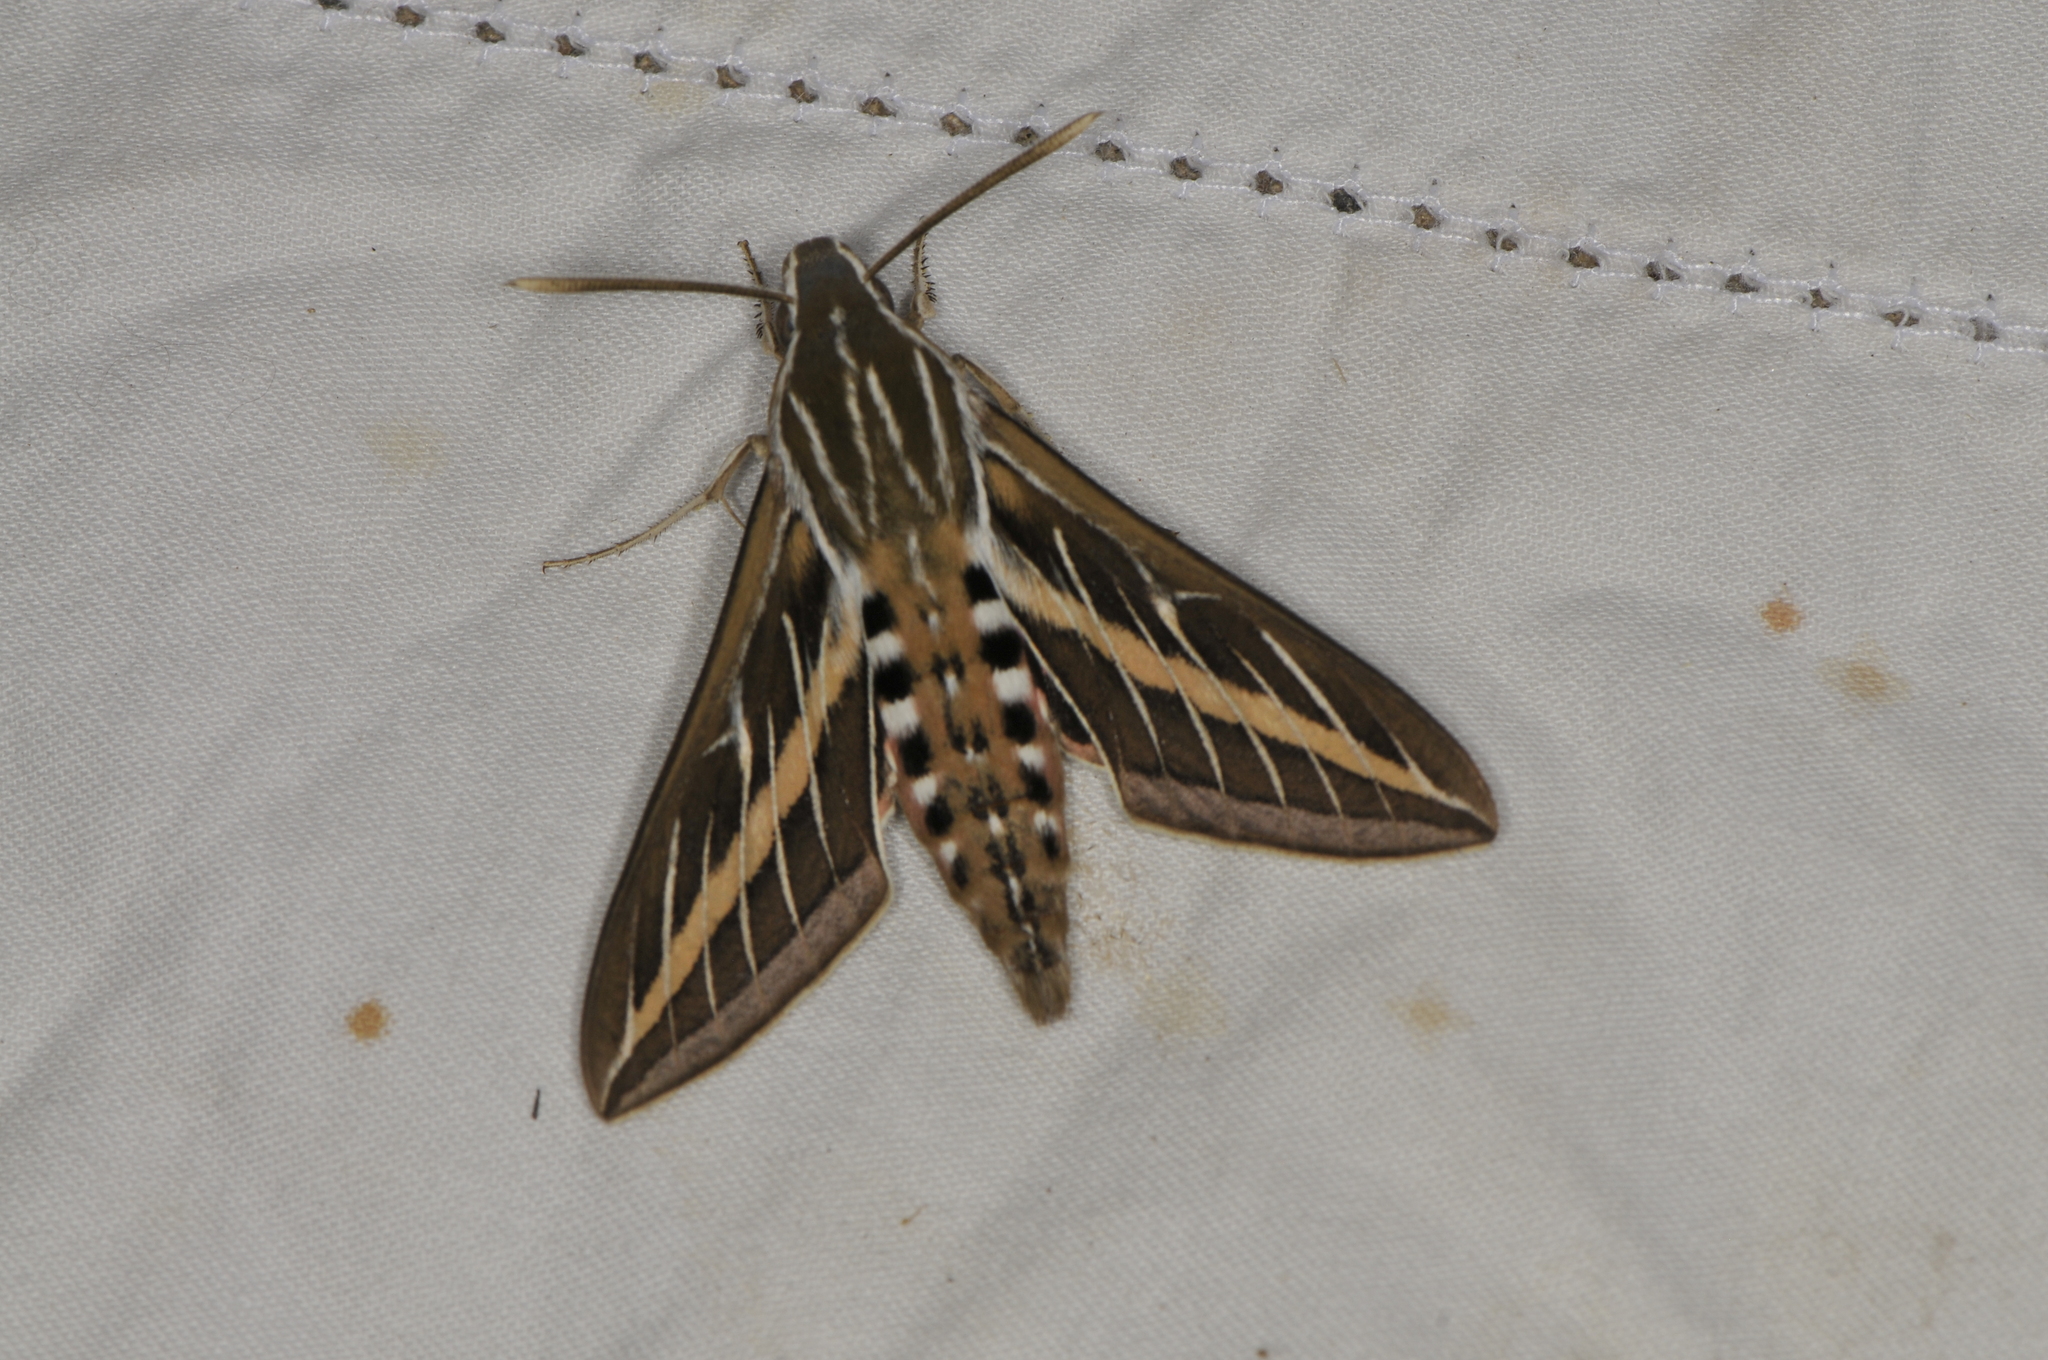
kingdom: Animalia
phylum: Arthropoda
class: Insecta
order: Lepidoptera
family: Sphingidae
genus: Hyles
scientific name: Hyles lineata
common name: White-lined sphinx
